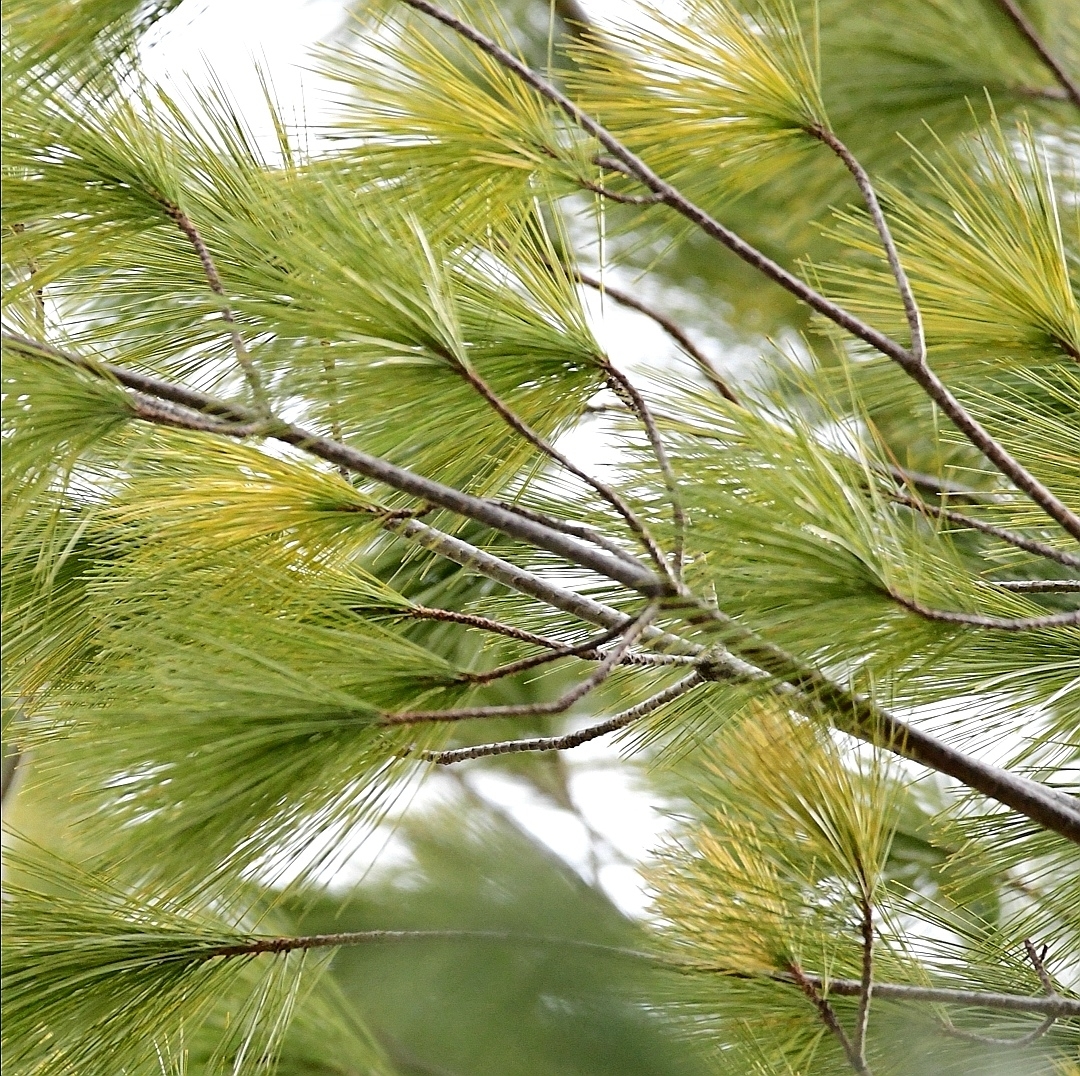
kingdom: Plantae
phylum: Tracheophyta
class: Pinopsida
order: Pinales
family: Pinaceae
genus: Pinus
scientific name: Pinus strobus
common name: Weymouth pine
